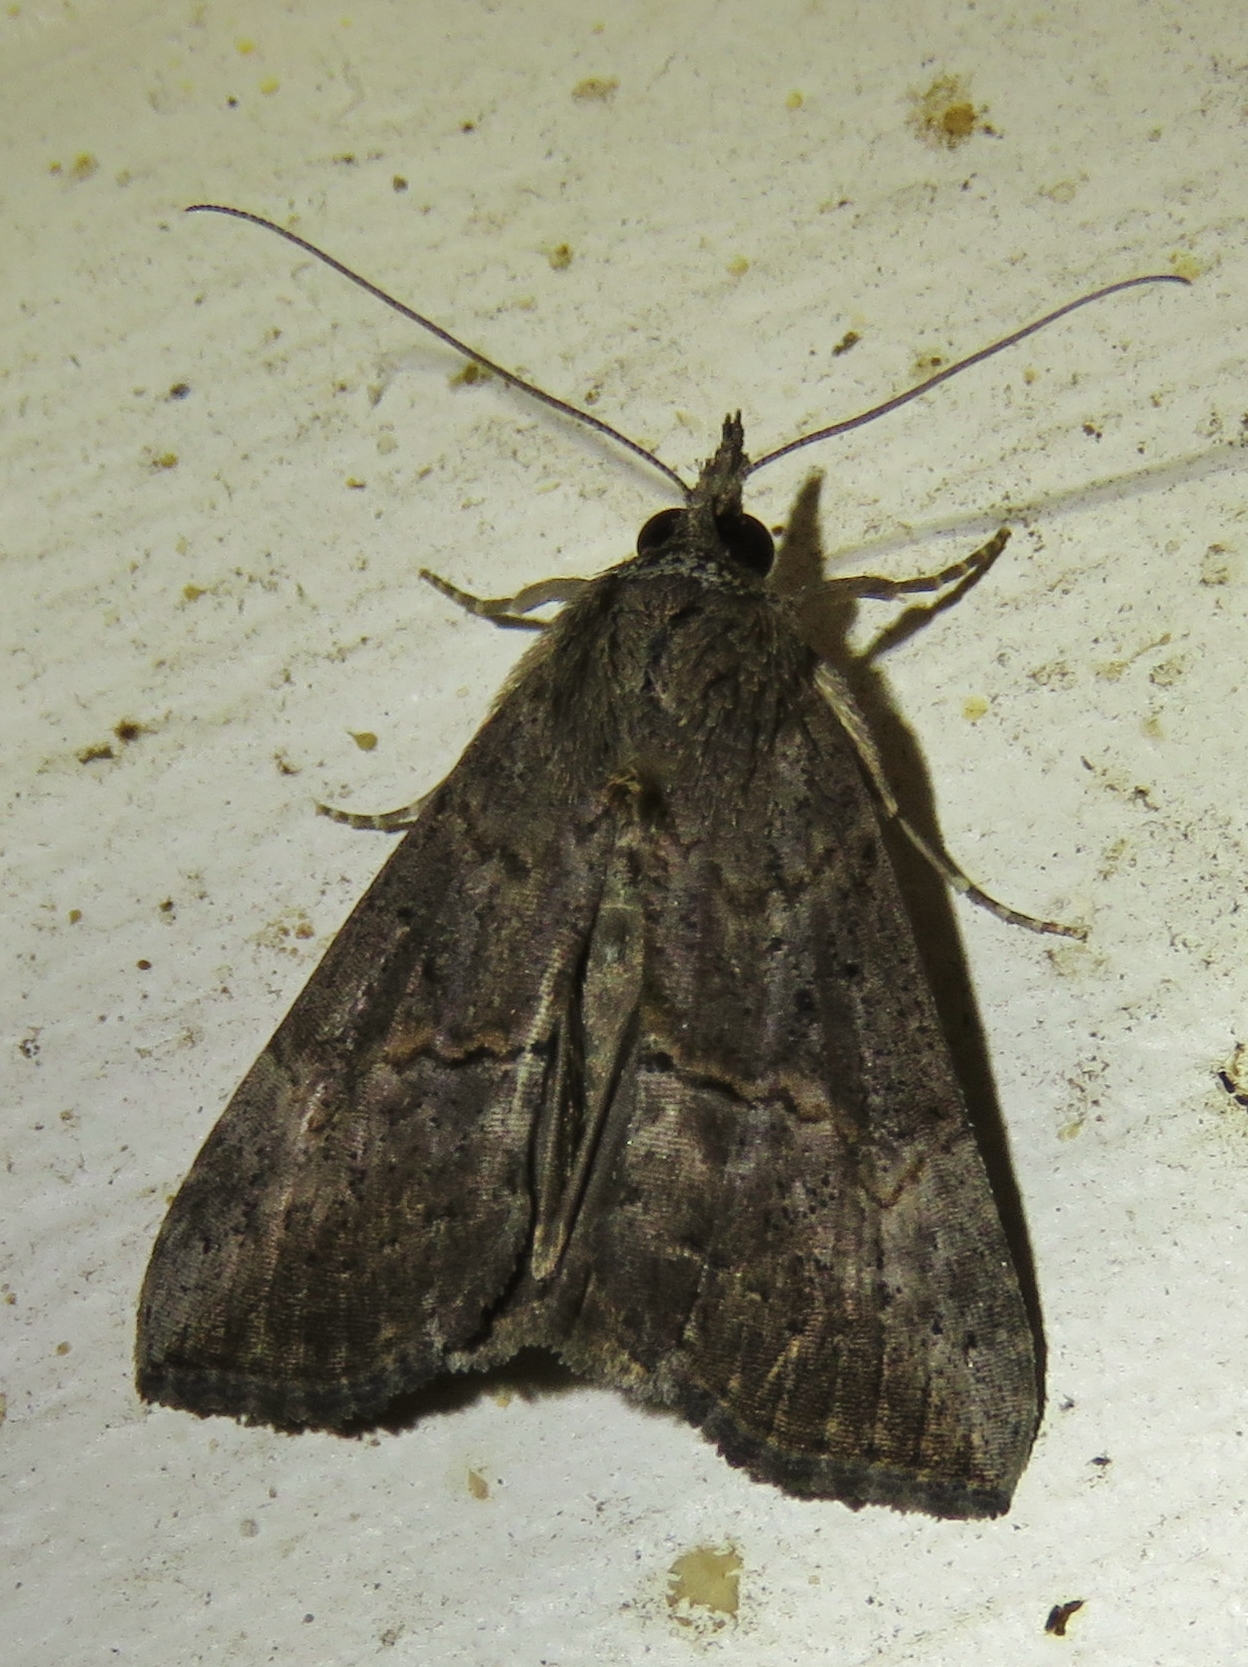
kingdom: Animalia
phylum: Arthropoda
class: Insecta
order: Lepidoptera
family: Erebidae
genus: Hypena
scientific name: Hypena scabra
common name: Green cloverworm
